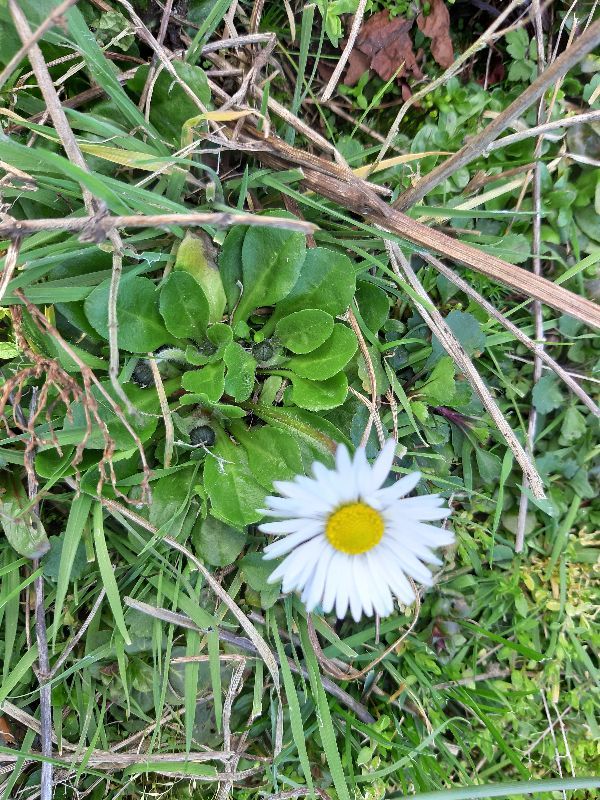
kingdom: Plantae
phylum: Tracheophyta
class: Magnoliopsida
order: Asterales
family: Asteraceae
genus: Bellis
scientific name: Bellis perennis
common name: Lawndaisy
